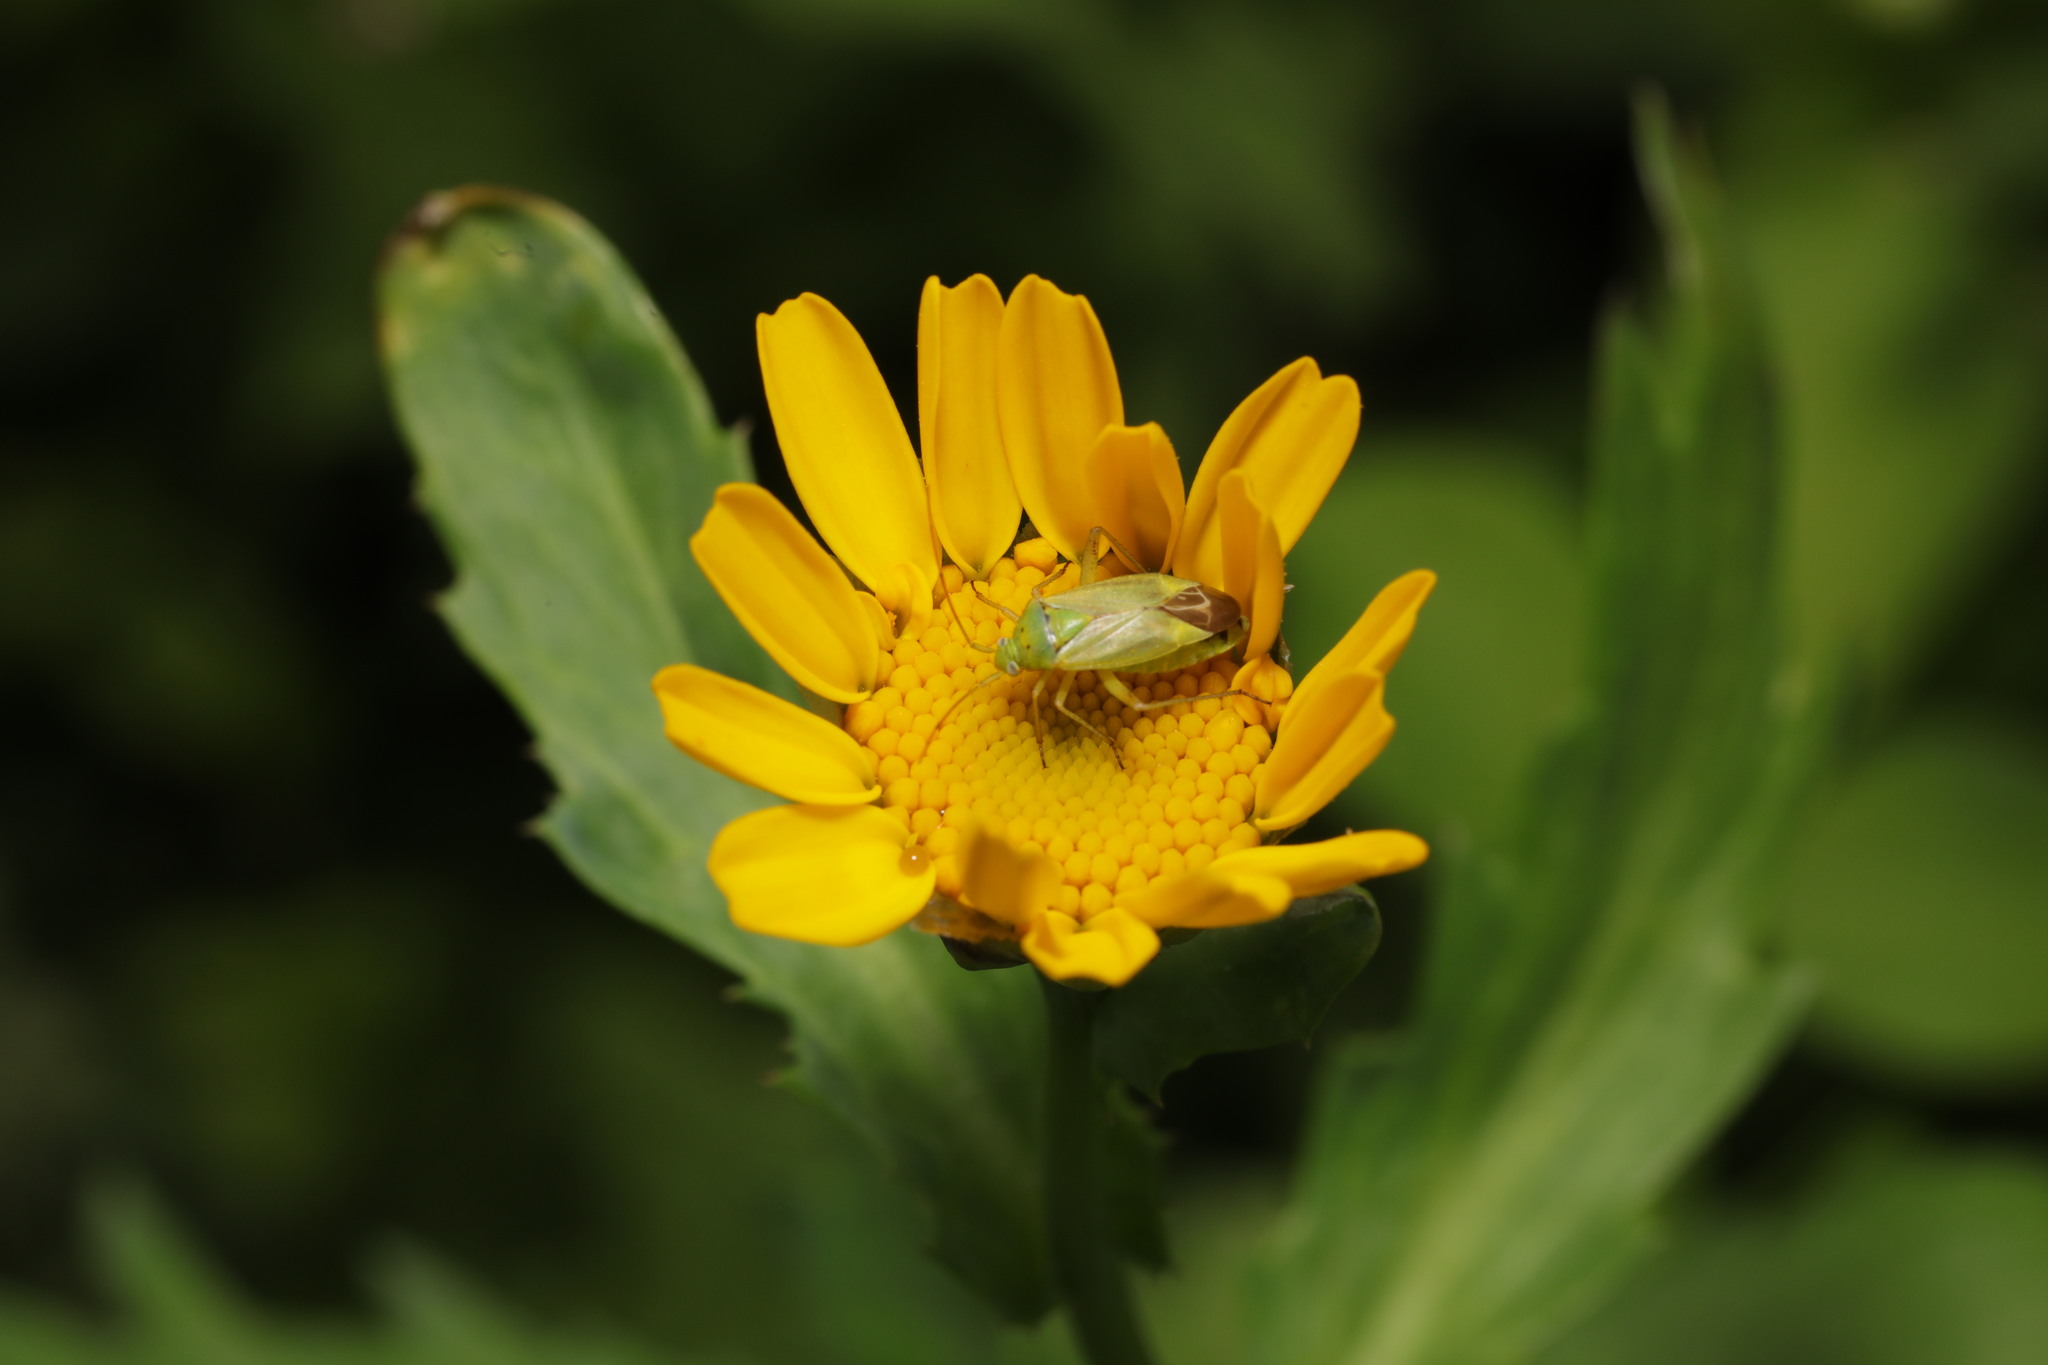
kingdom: Animalia
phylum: Arthropoda
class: Insecta
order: Hemiptera
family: Miridae
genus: Closterotomus
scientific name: Closterotomus norvegicus
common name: Plant bug
